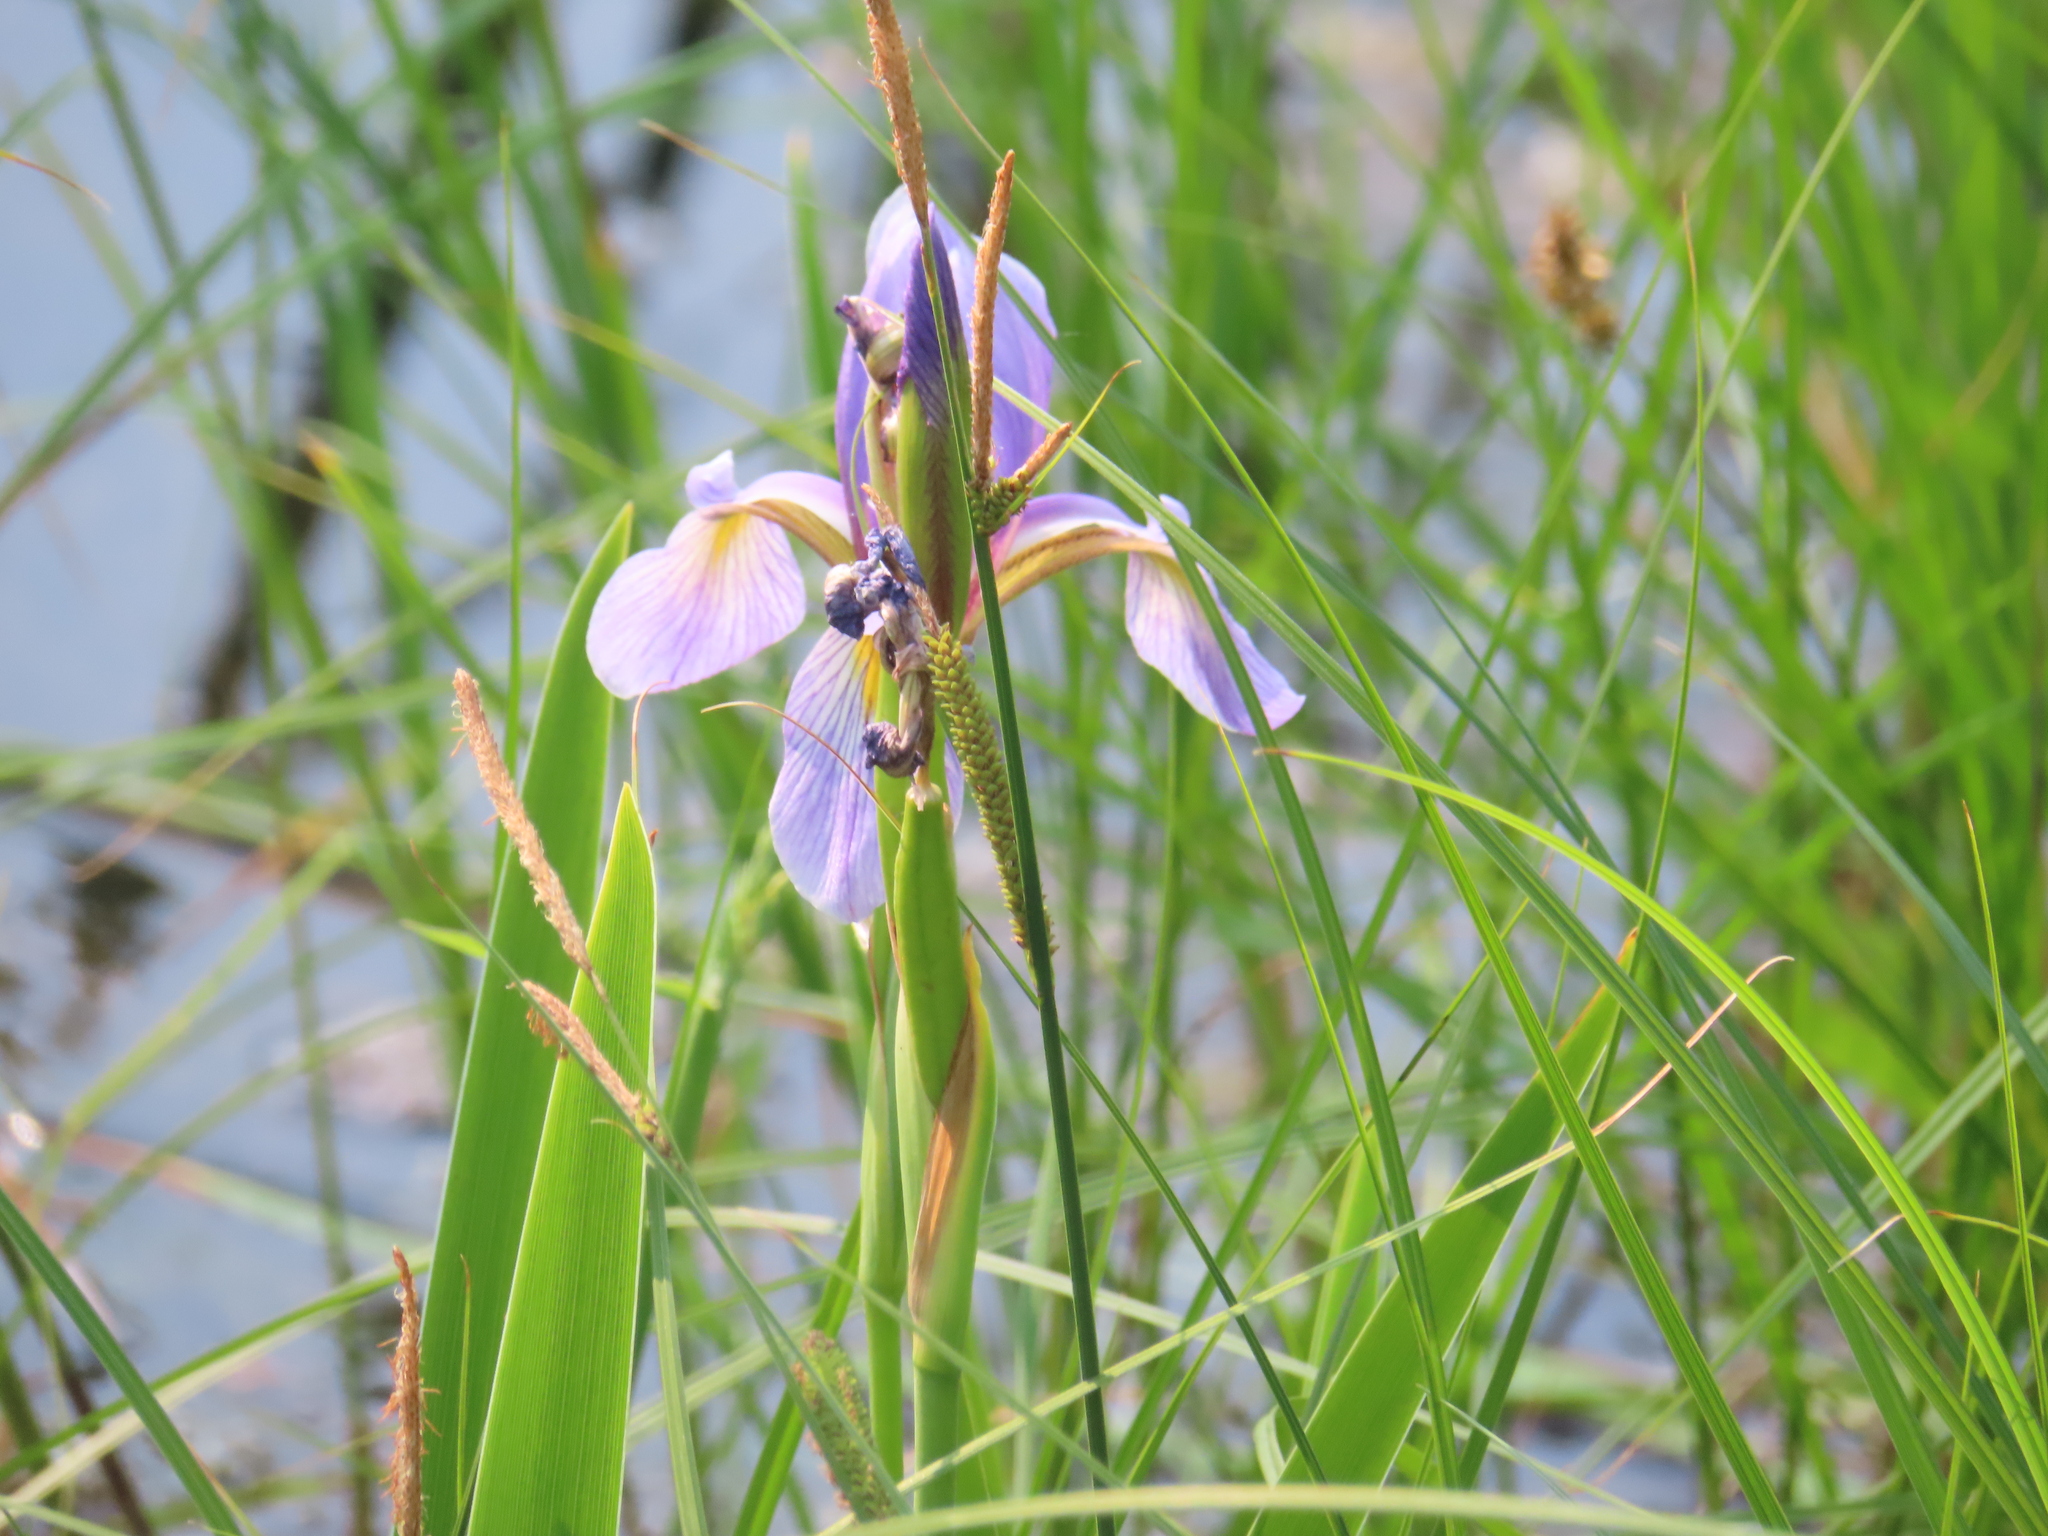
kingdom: Plantae
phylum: Tracheophyta
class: Liliopsida
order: Asparagales
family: Iridaceae
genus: Iris
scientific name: Iris virginica
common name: Southern blue flag
